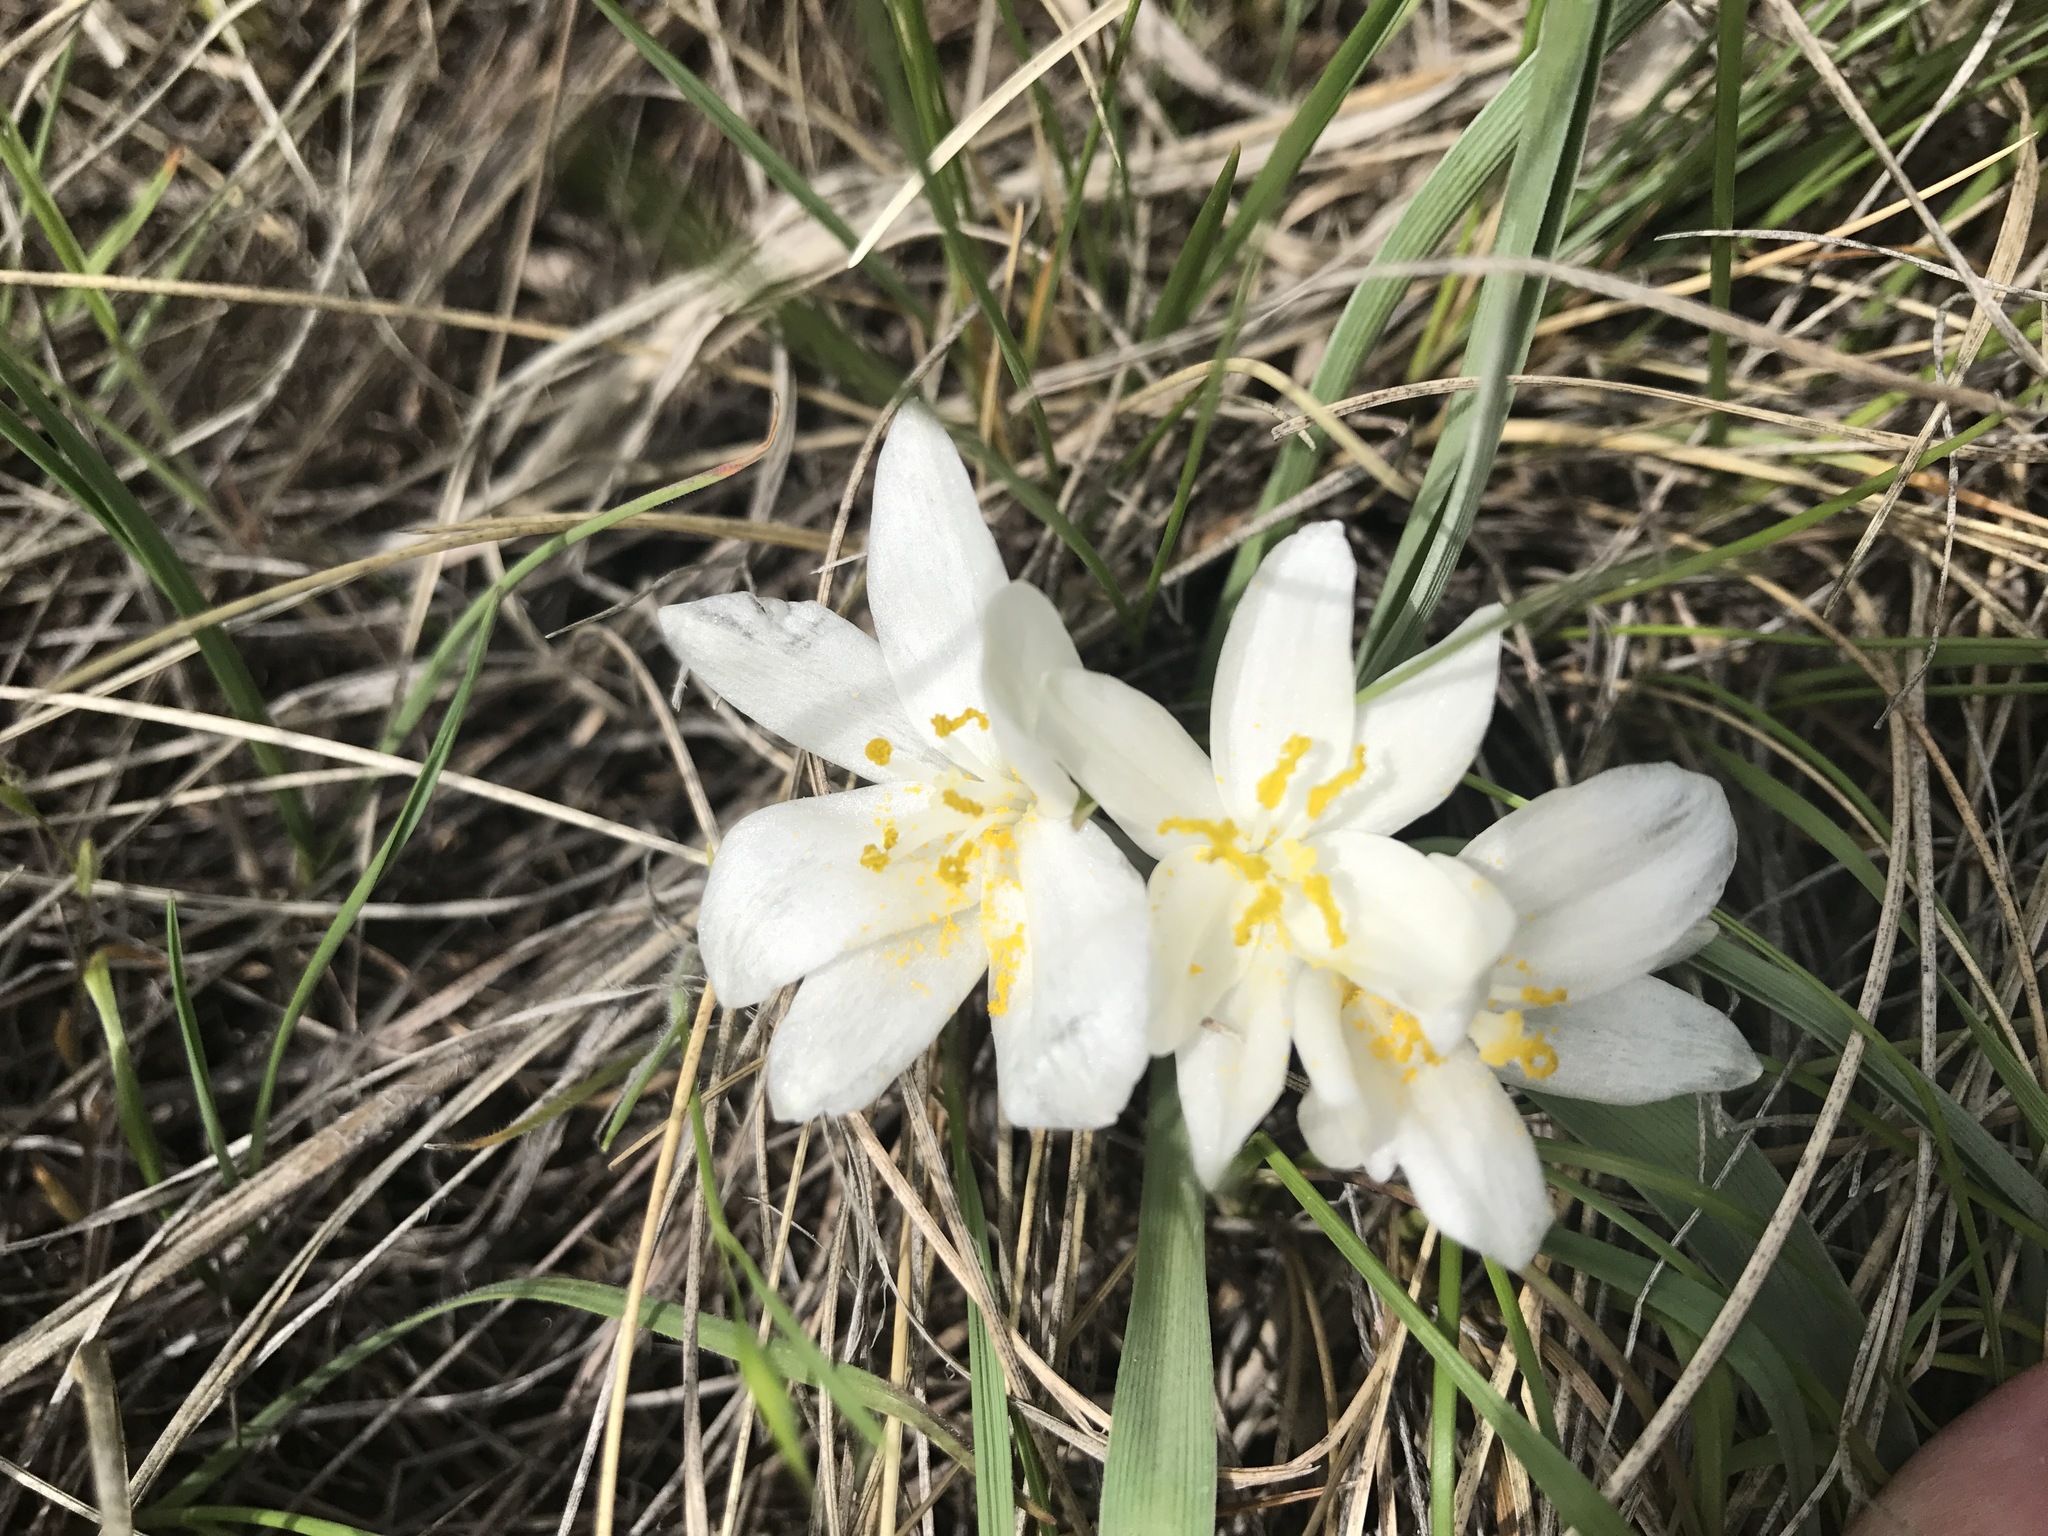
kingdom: Plantae
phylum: Tracheophyta
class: Liliopsida
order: Asparagales
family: Asparagaceae
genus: Leucocrinum
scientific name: Leucocrinum montanum
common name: Mountain-lily
